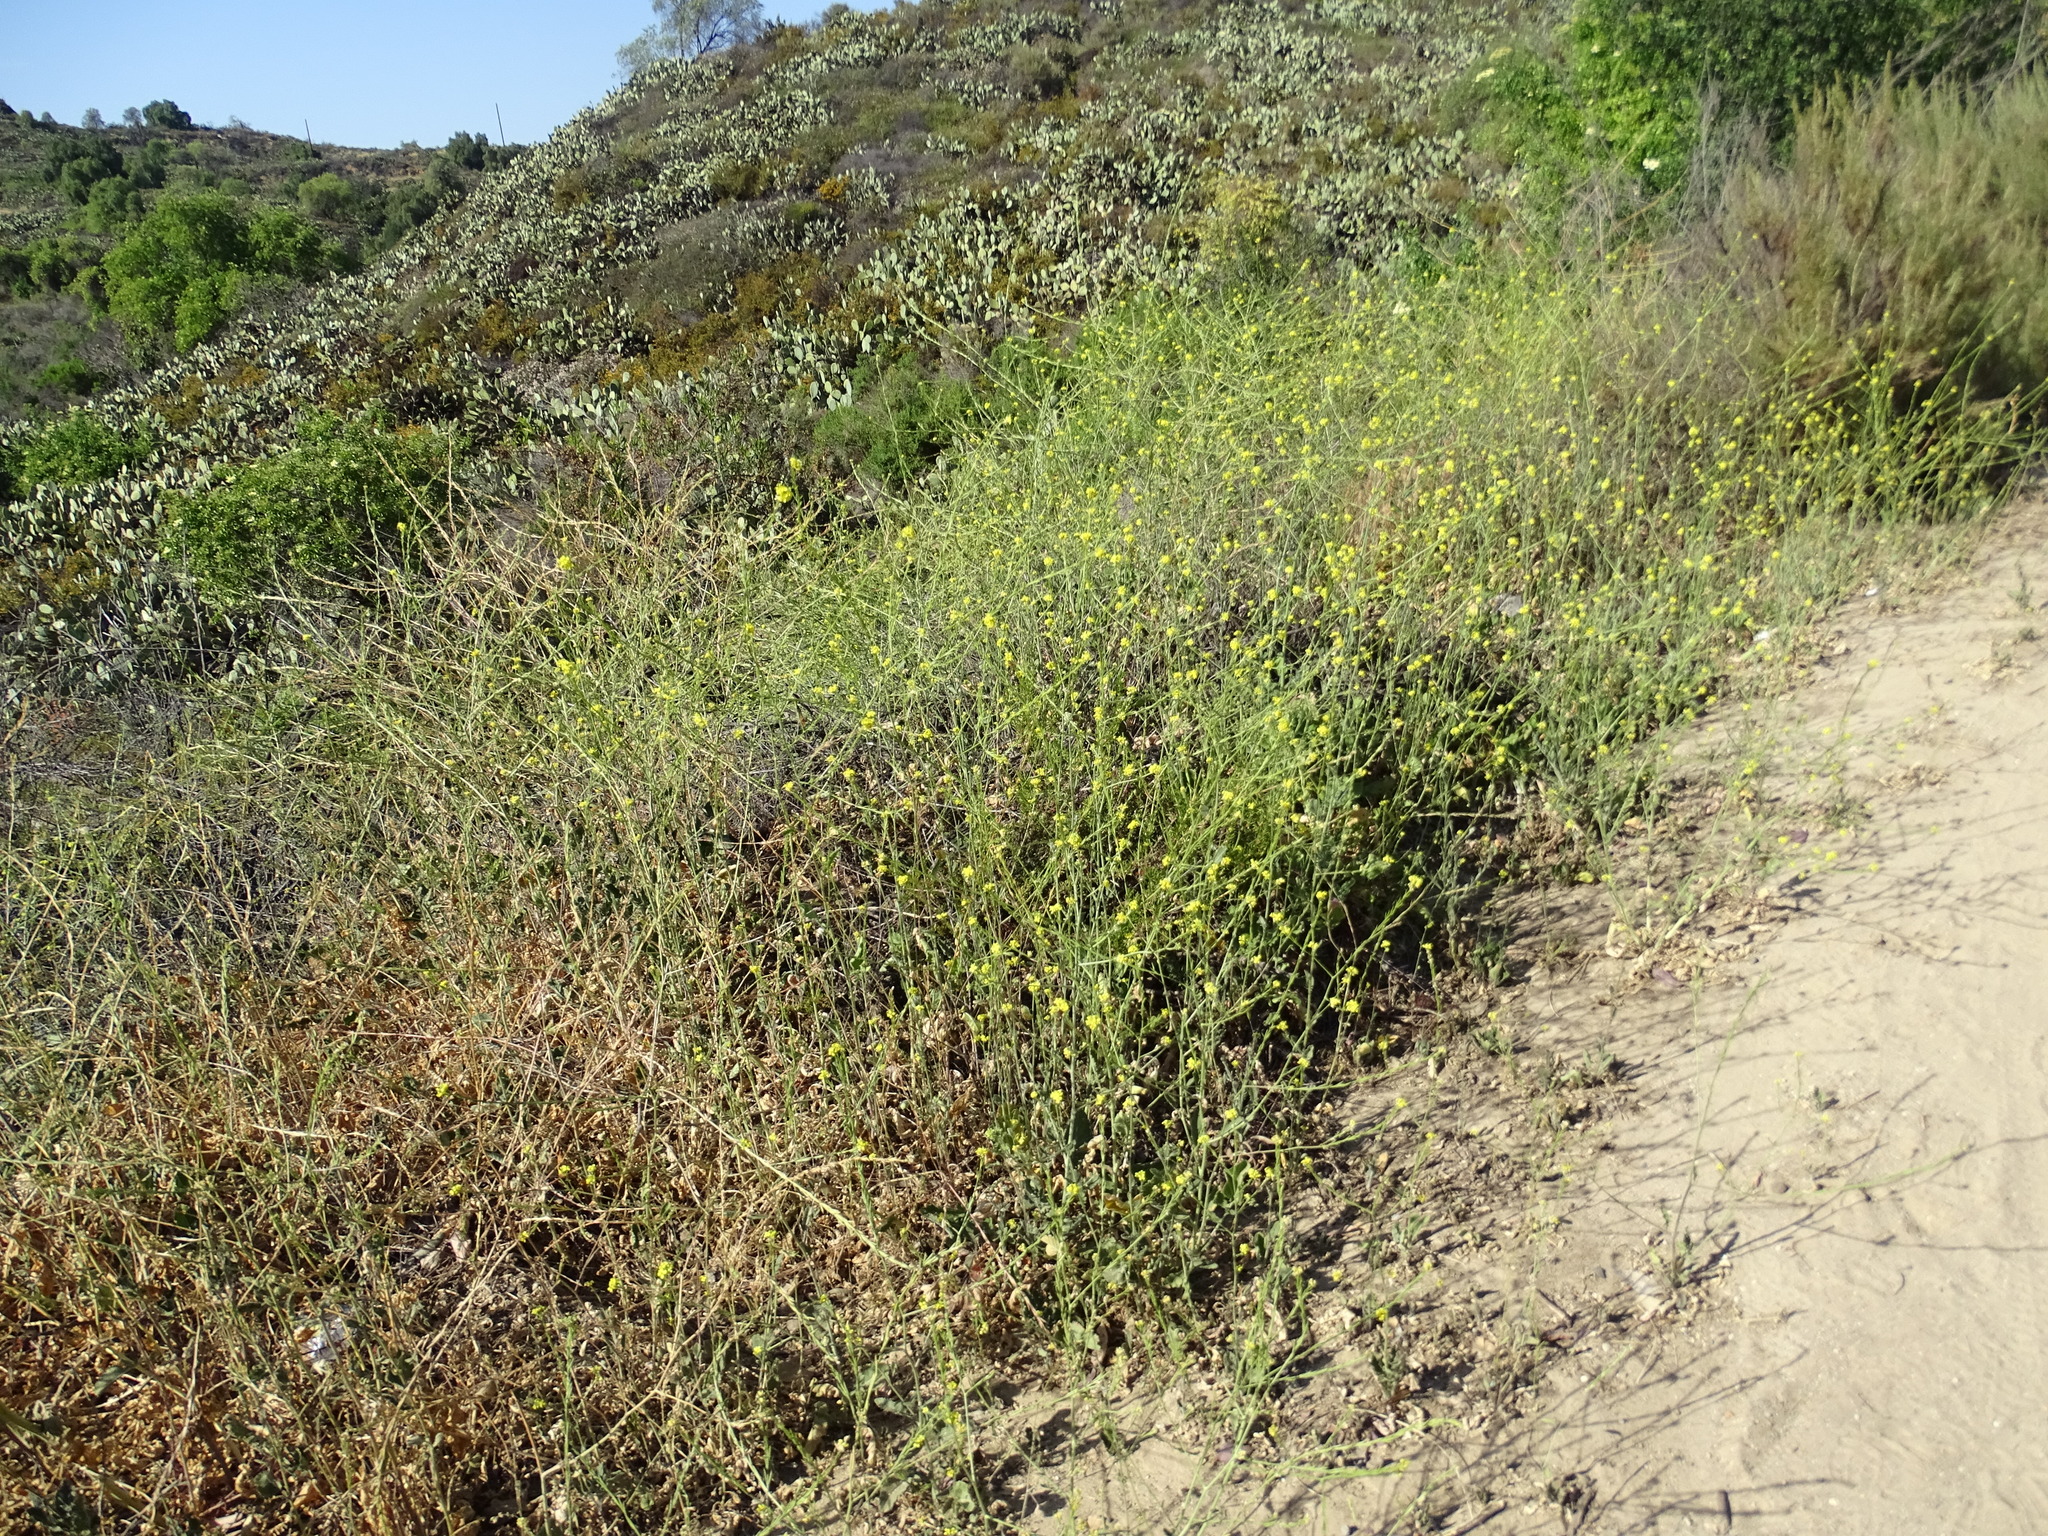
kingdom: Plantae
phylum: Tracheophyta
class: Magnoliopsida
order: Brassicales
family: Brassicaceae
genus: Hirschfeldia
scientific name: Hirschfeldia incana
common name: Hoary mustard
